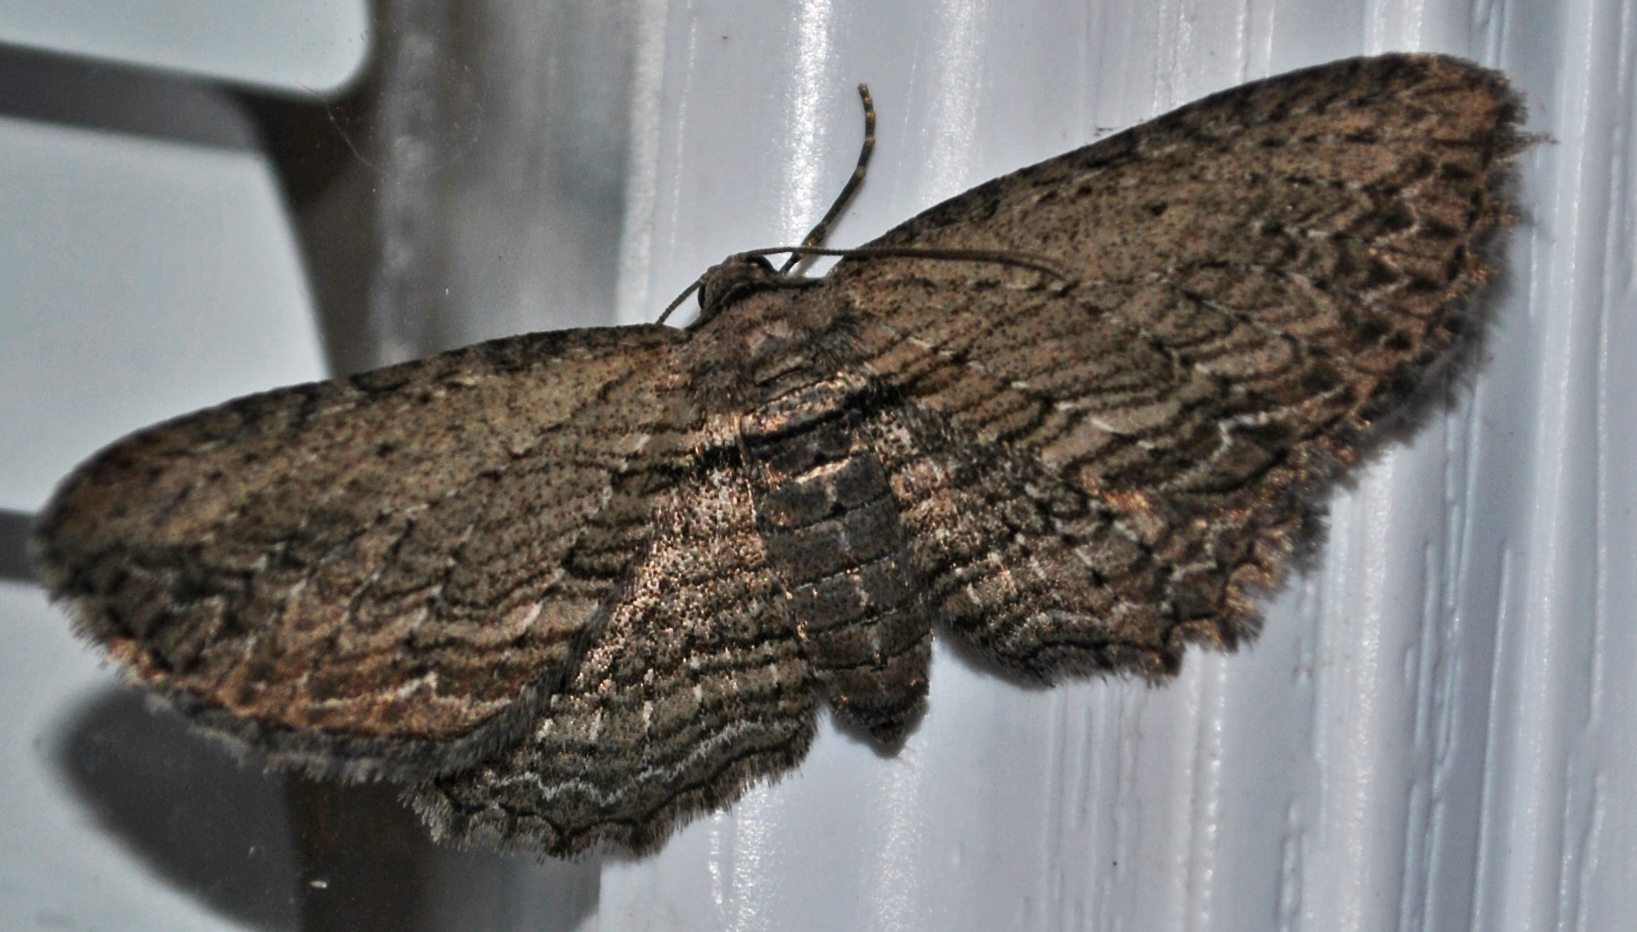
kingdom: Animalia
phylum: Arthropoda
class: Insecta
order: Lepidoptera
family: Geometridae
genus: Horisme
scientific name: Horisme intestinata
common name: Brown bark carpet
